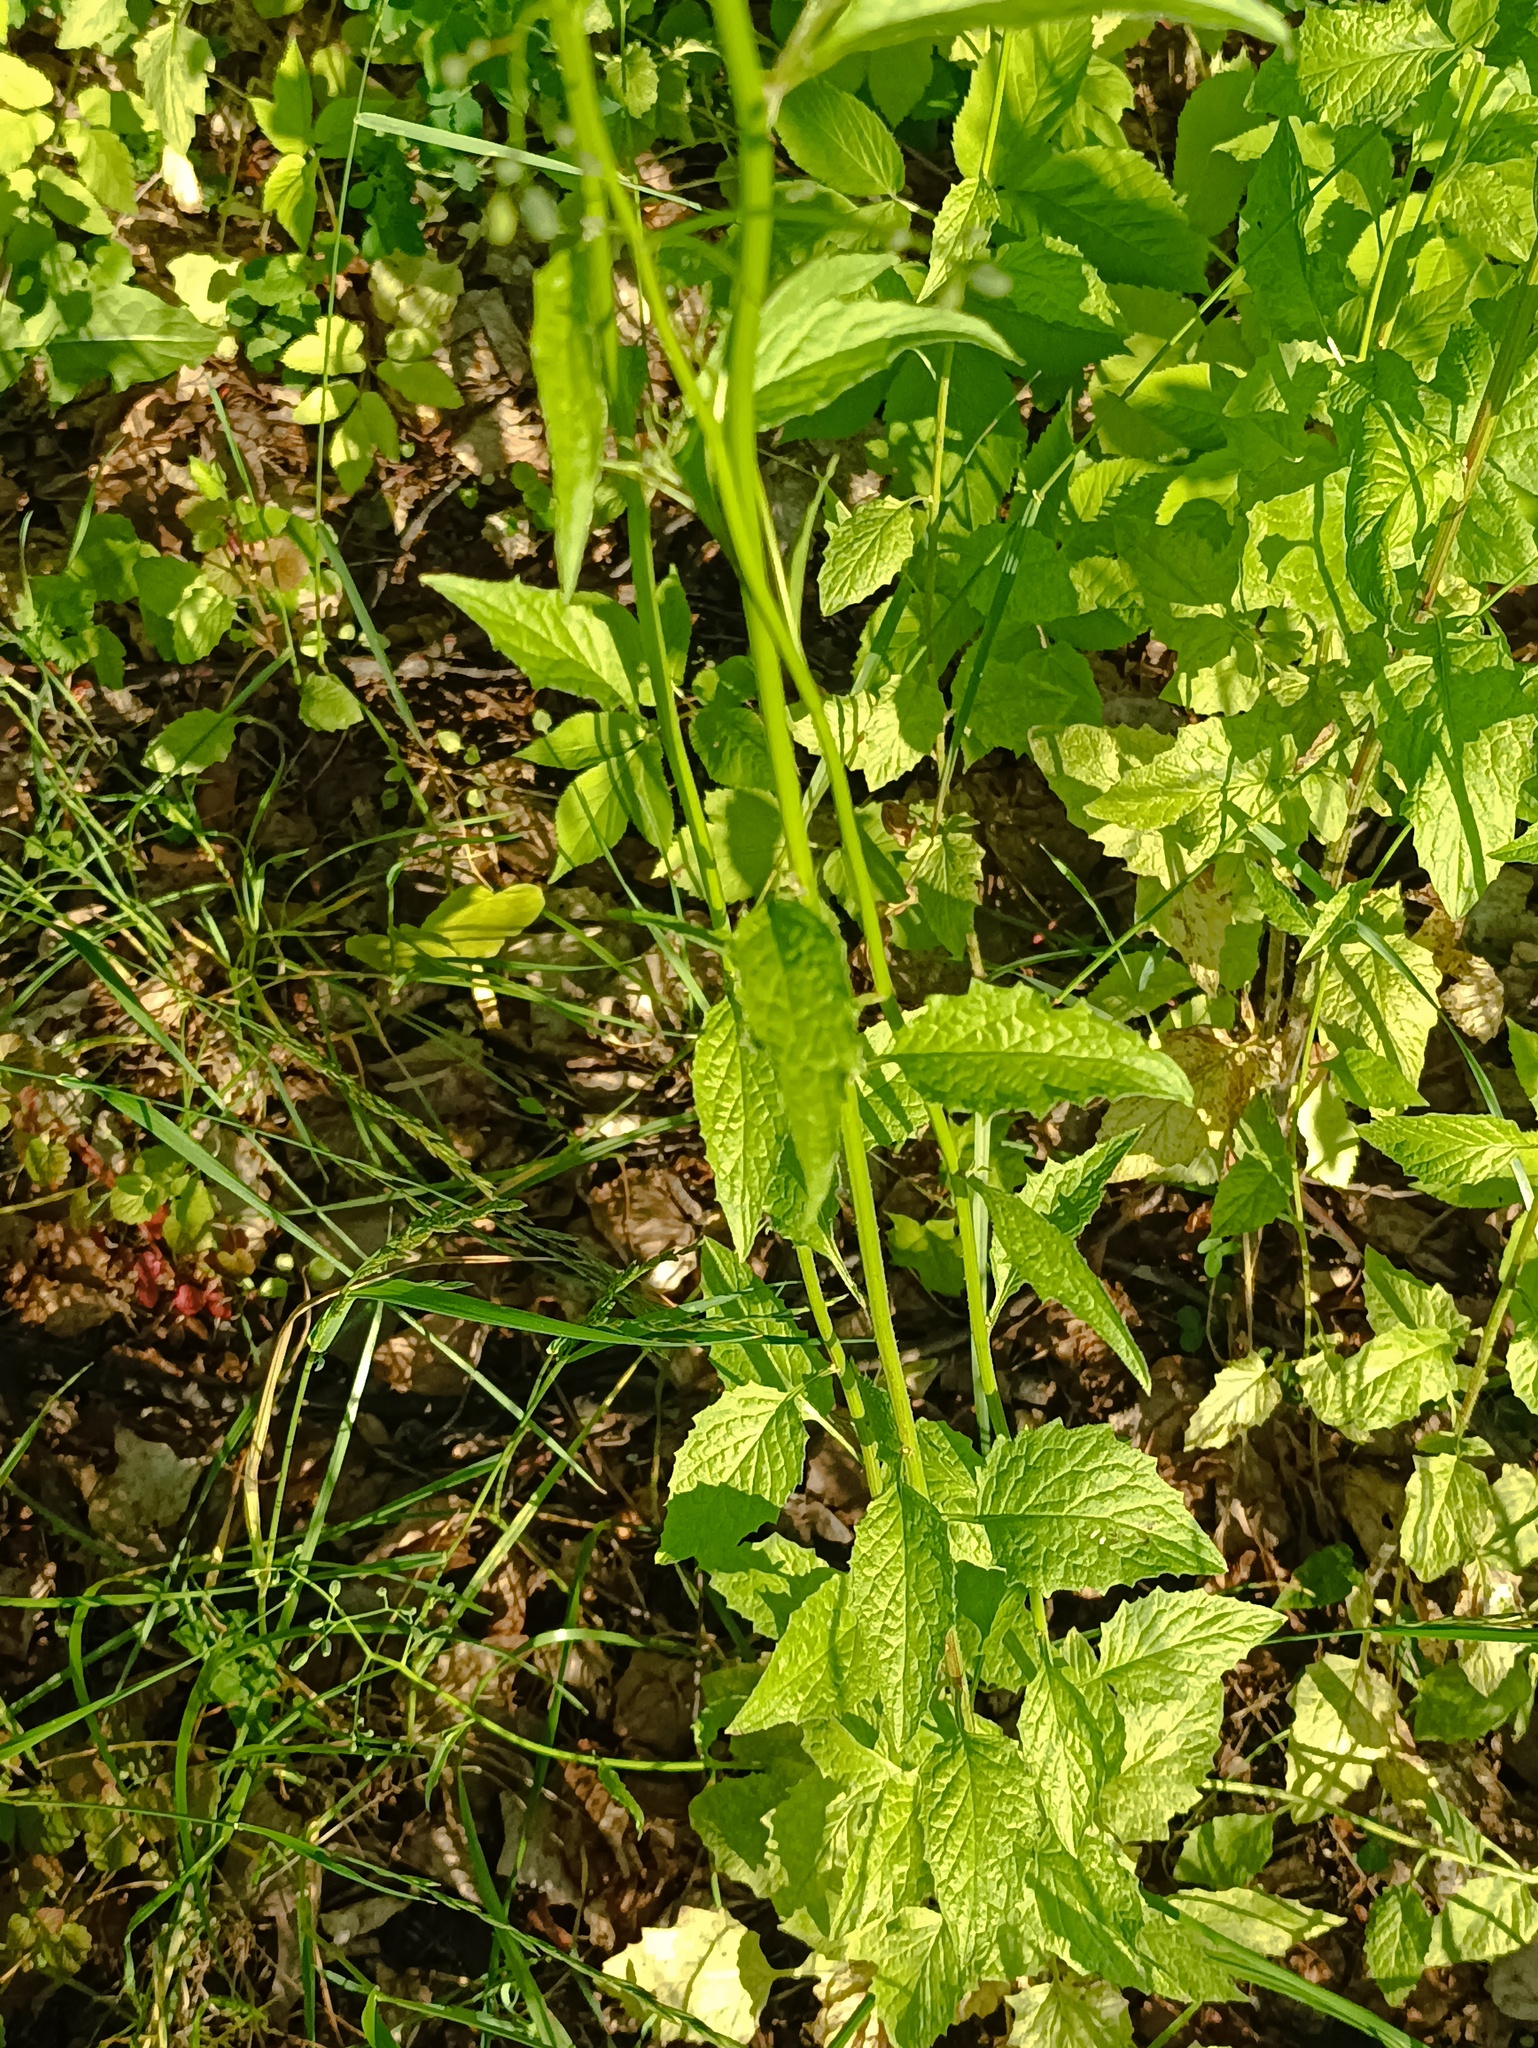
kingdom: Plantae
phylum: Tracheophyta
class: Magnoliopsida
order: Asterales
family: Asteraceae
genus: Lapsana
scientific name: Lapsana communis
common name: Nipplewort
